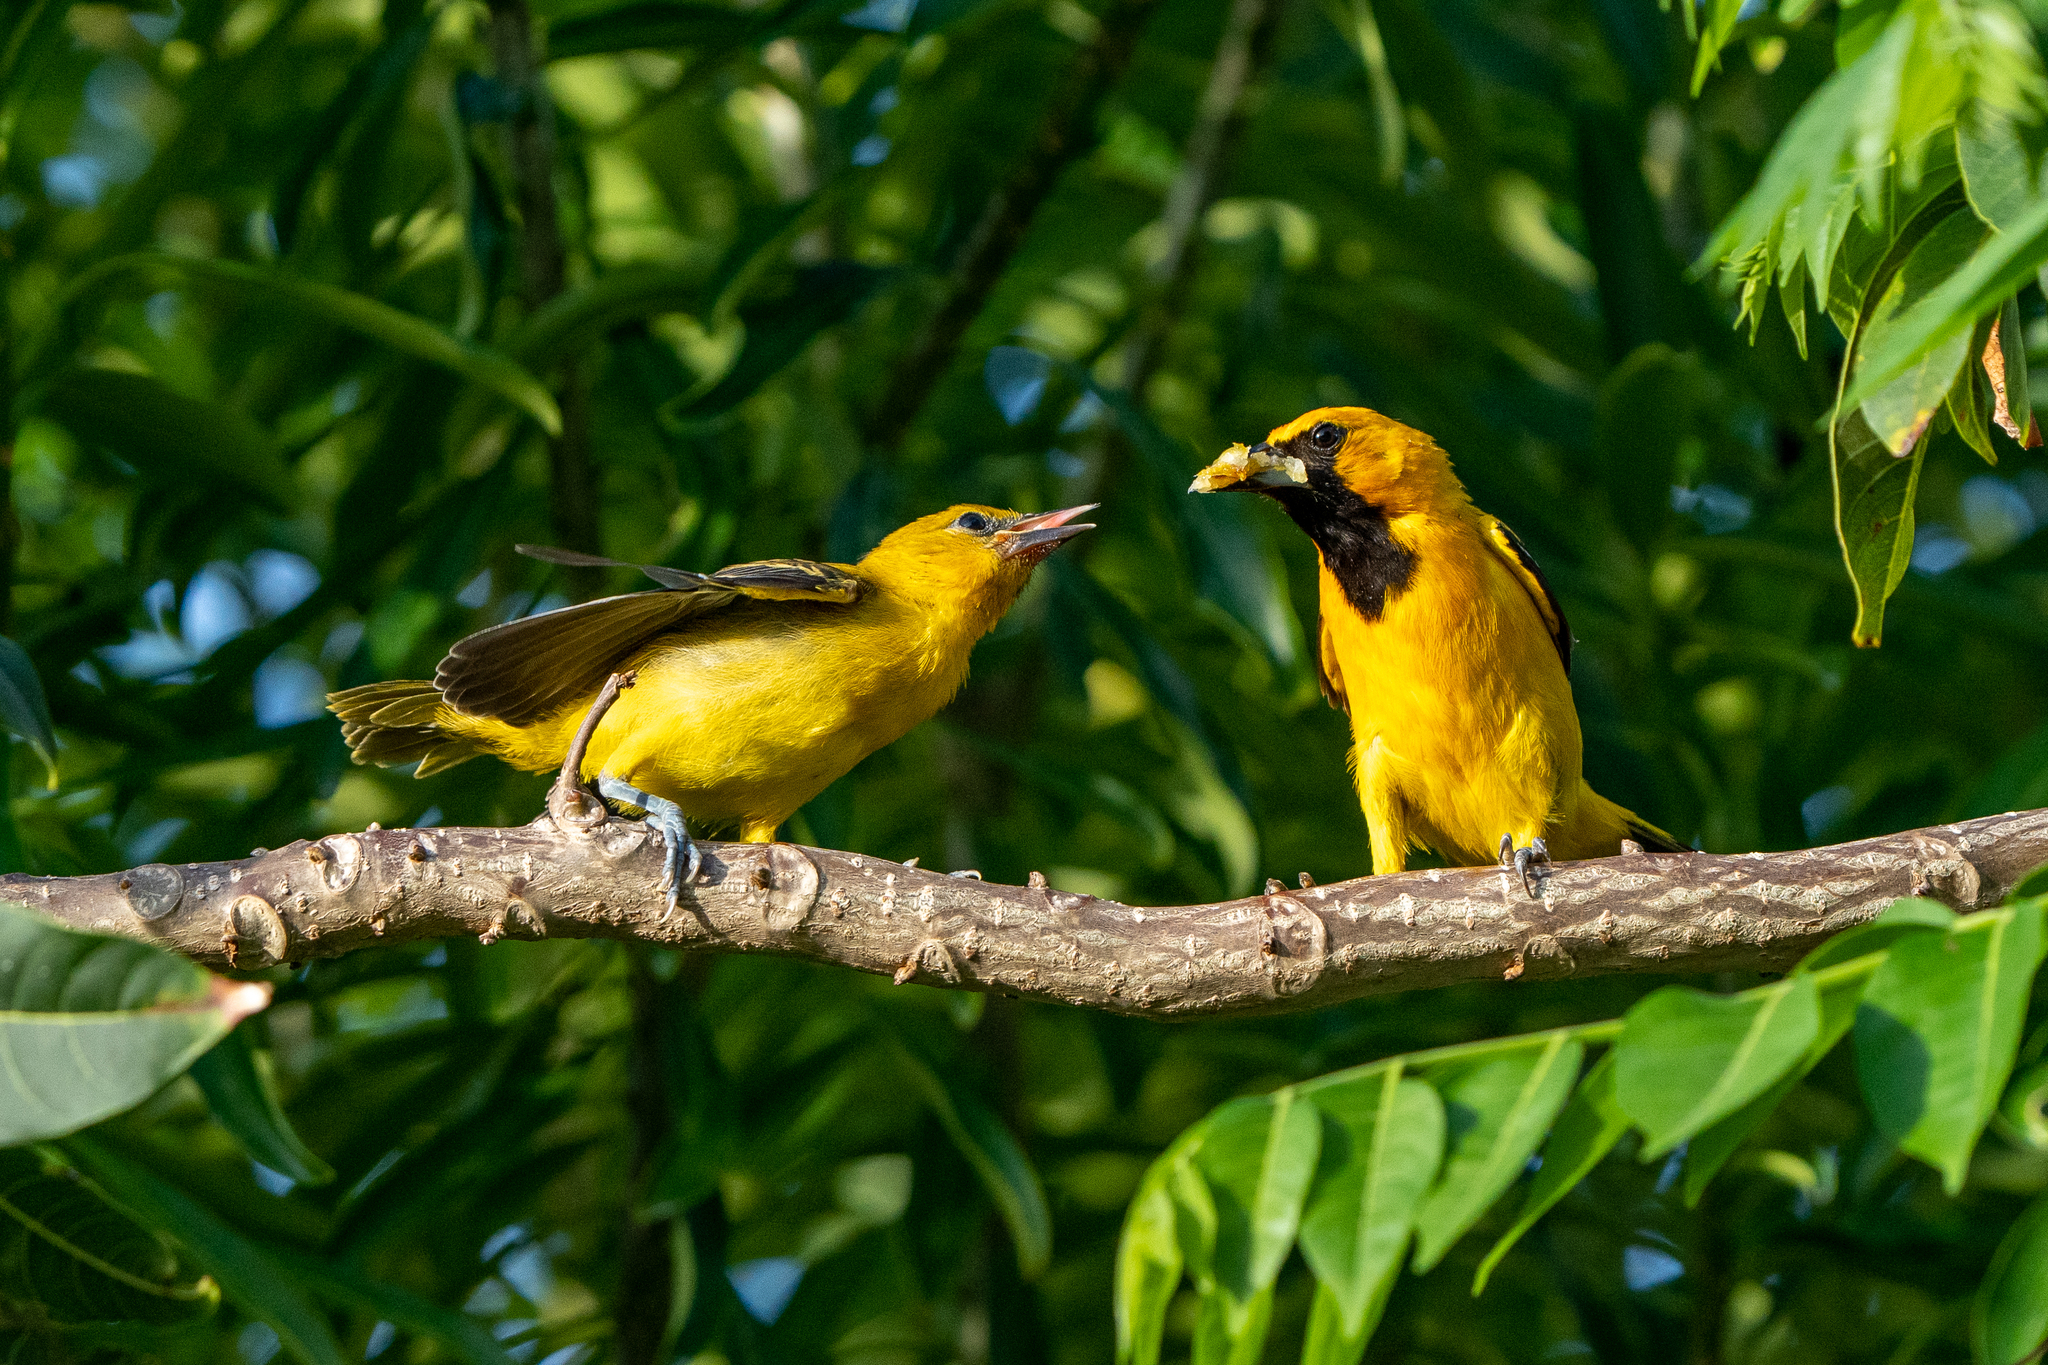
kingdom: Animalia
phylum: Chordata
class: Aves
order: Passeriformes
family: Icteridae
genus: Icterus
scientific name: Icterus chrysater
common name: Yellow-backed oriole
